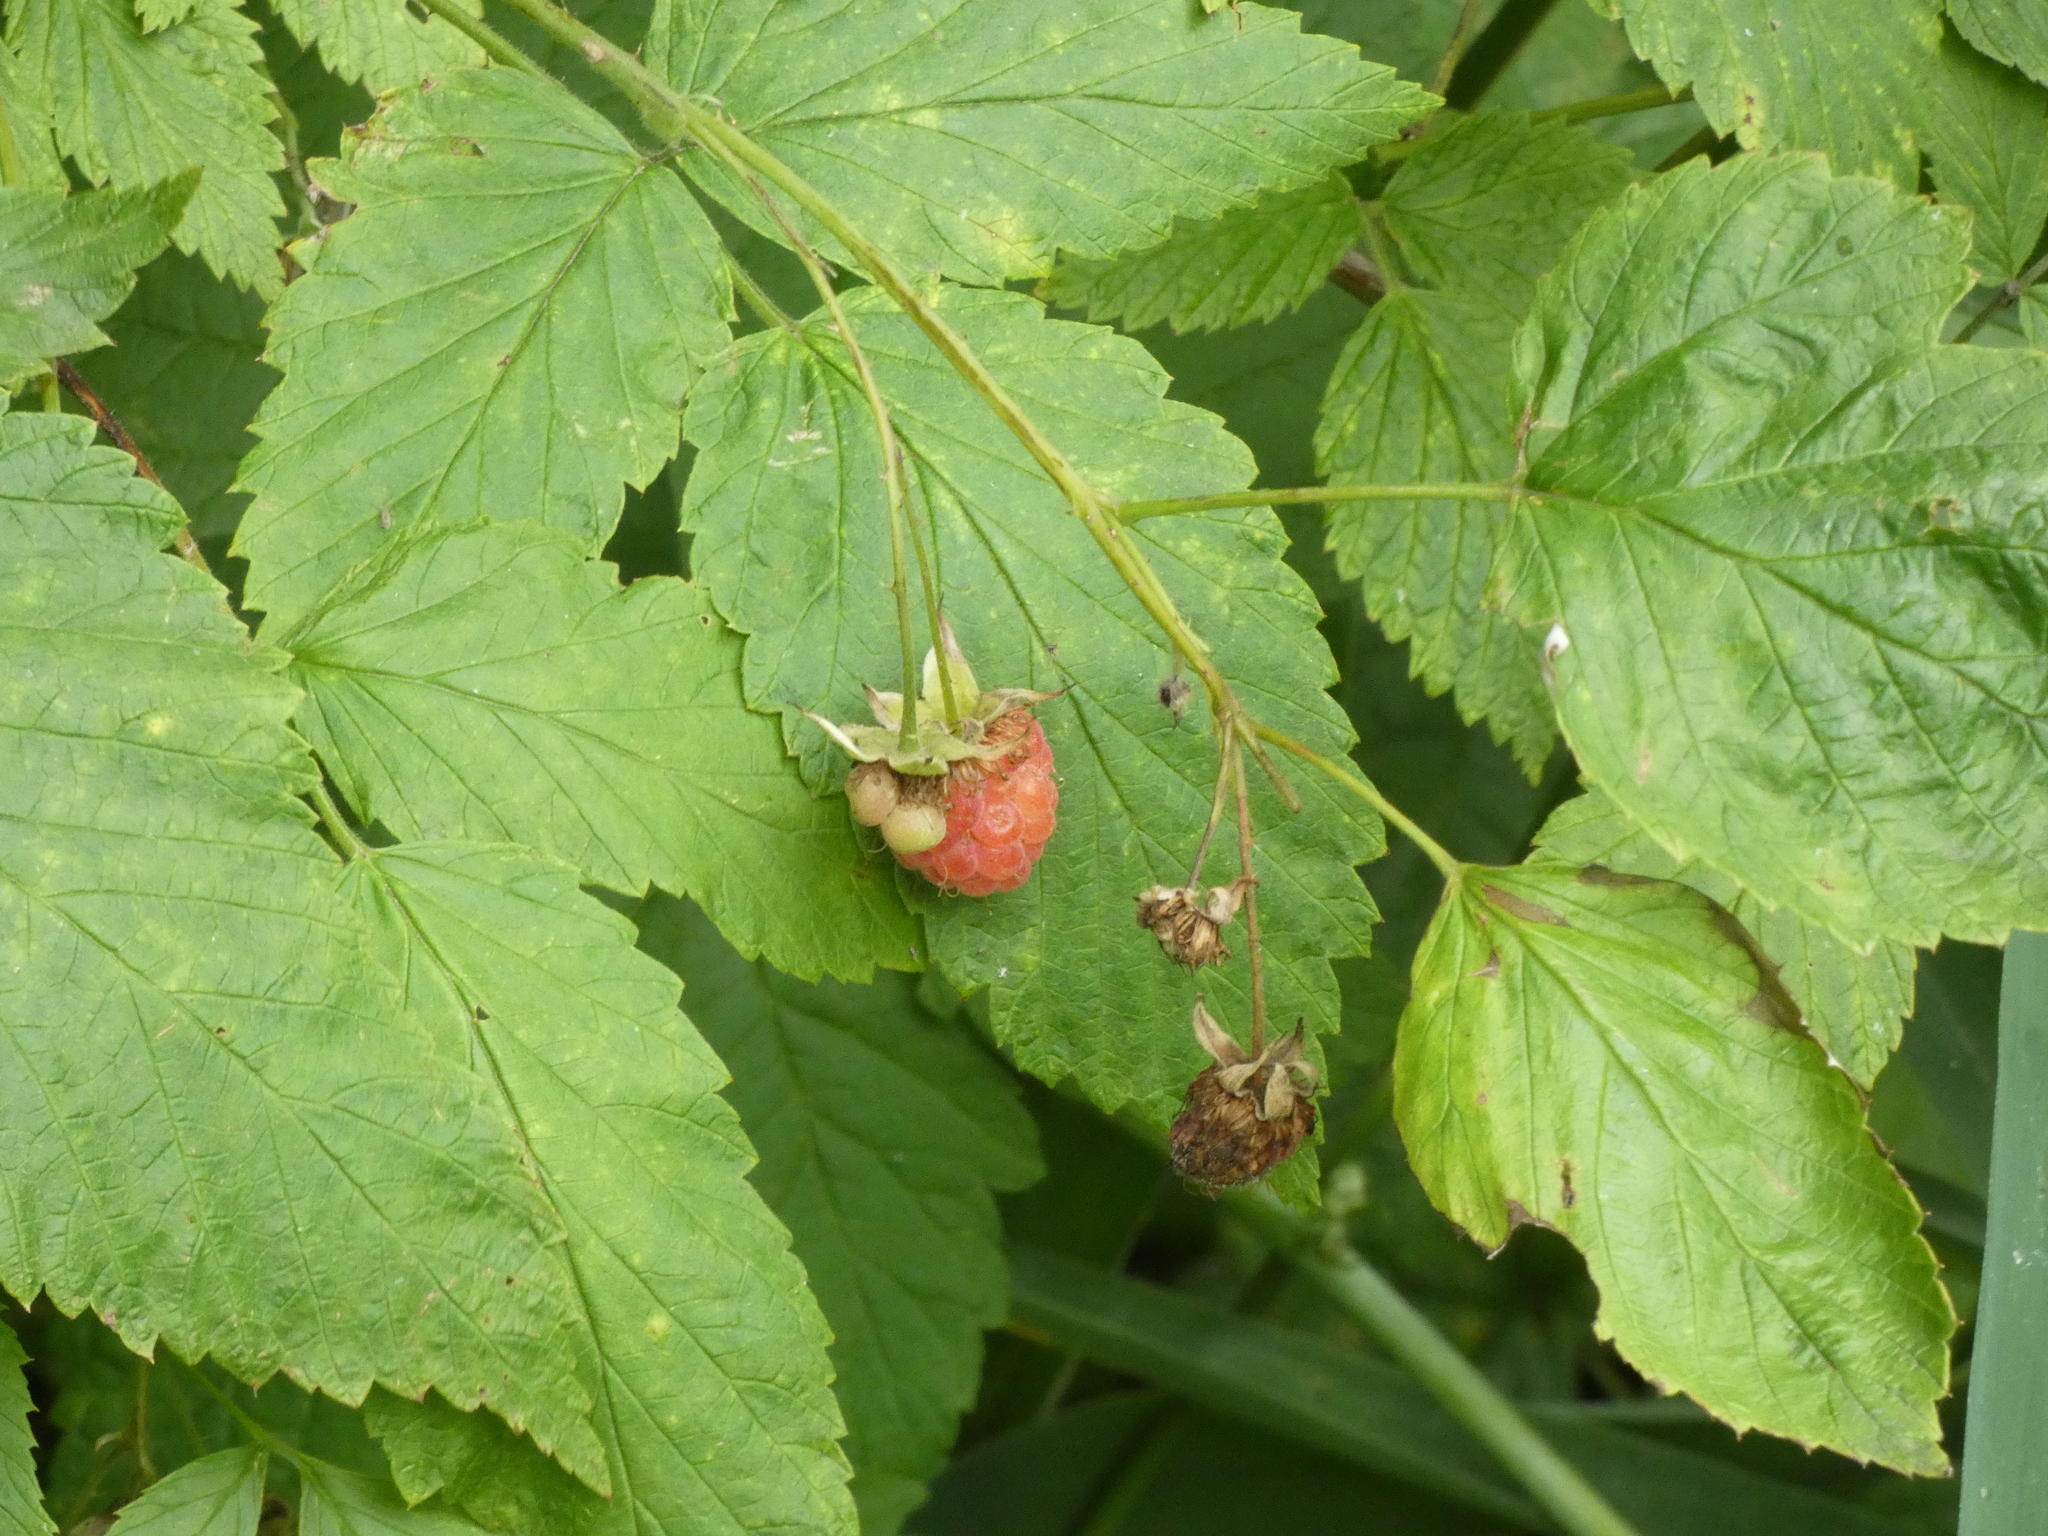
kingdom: Plantae
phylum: Tracheophyta
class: Magnoliopsida
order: Rosales
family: Rosaceae
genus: Rubus
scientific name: Rubus idaeus
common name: Raspberry
